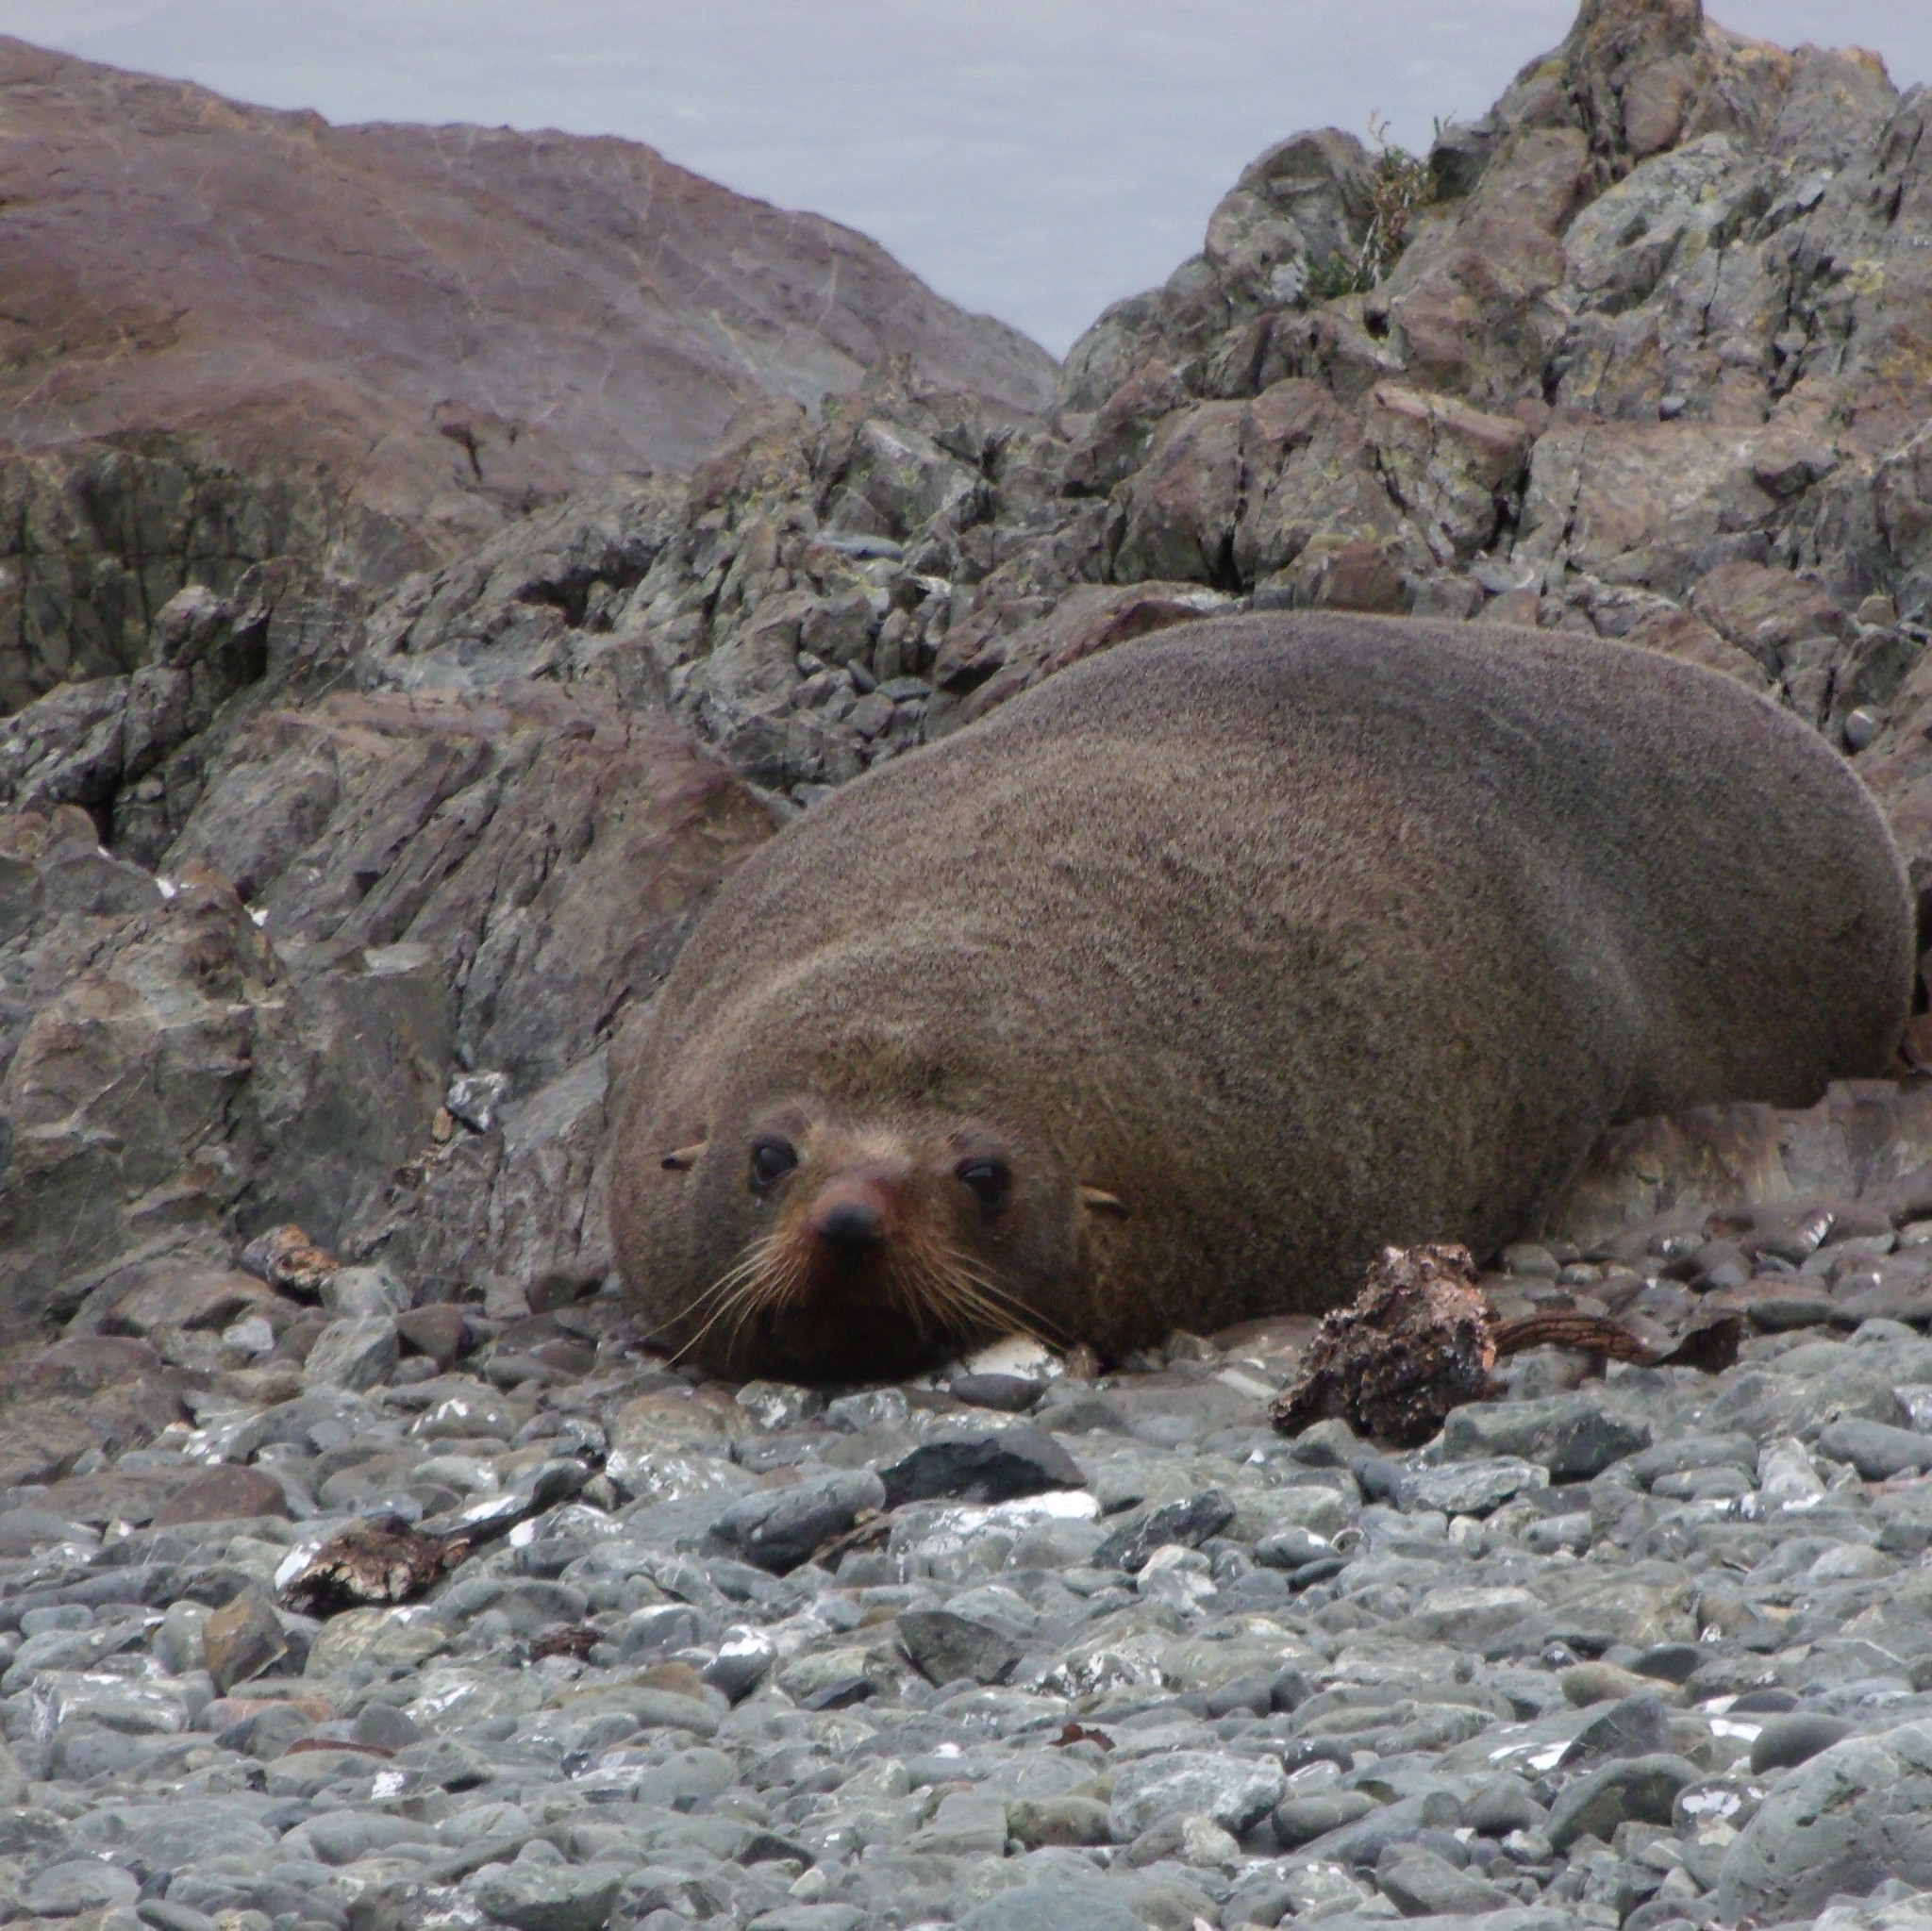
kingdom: Animalia
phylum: Chordata
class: Mammalia
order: Carnivora
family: Otariidae
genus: Arctocephalus
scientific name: Arctocephalus forsteri
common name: New zealand fur seal
